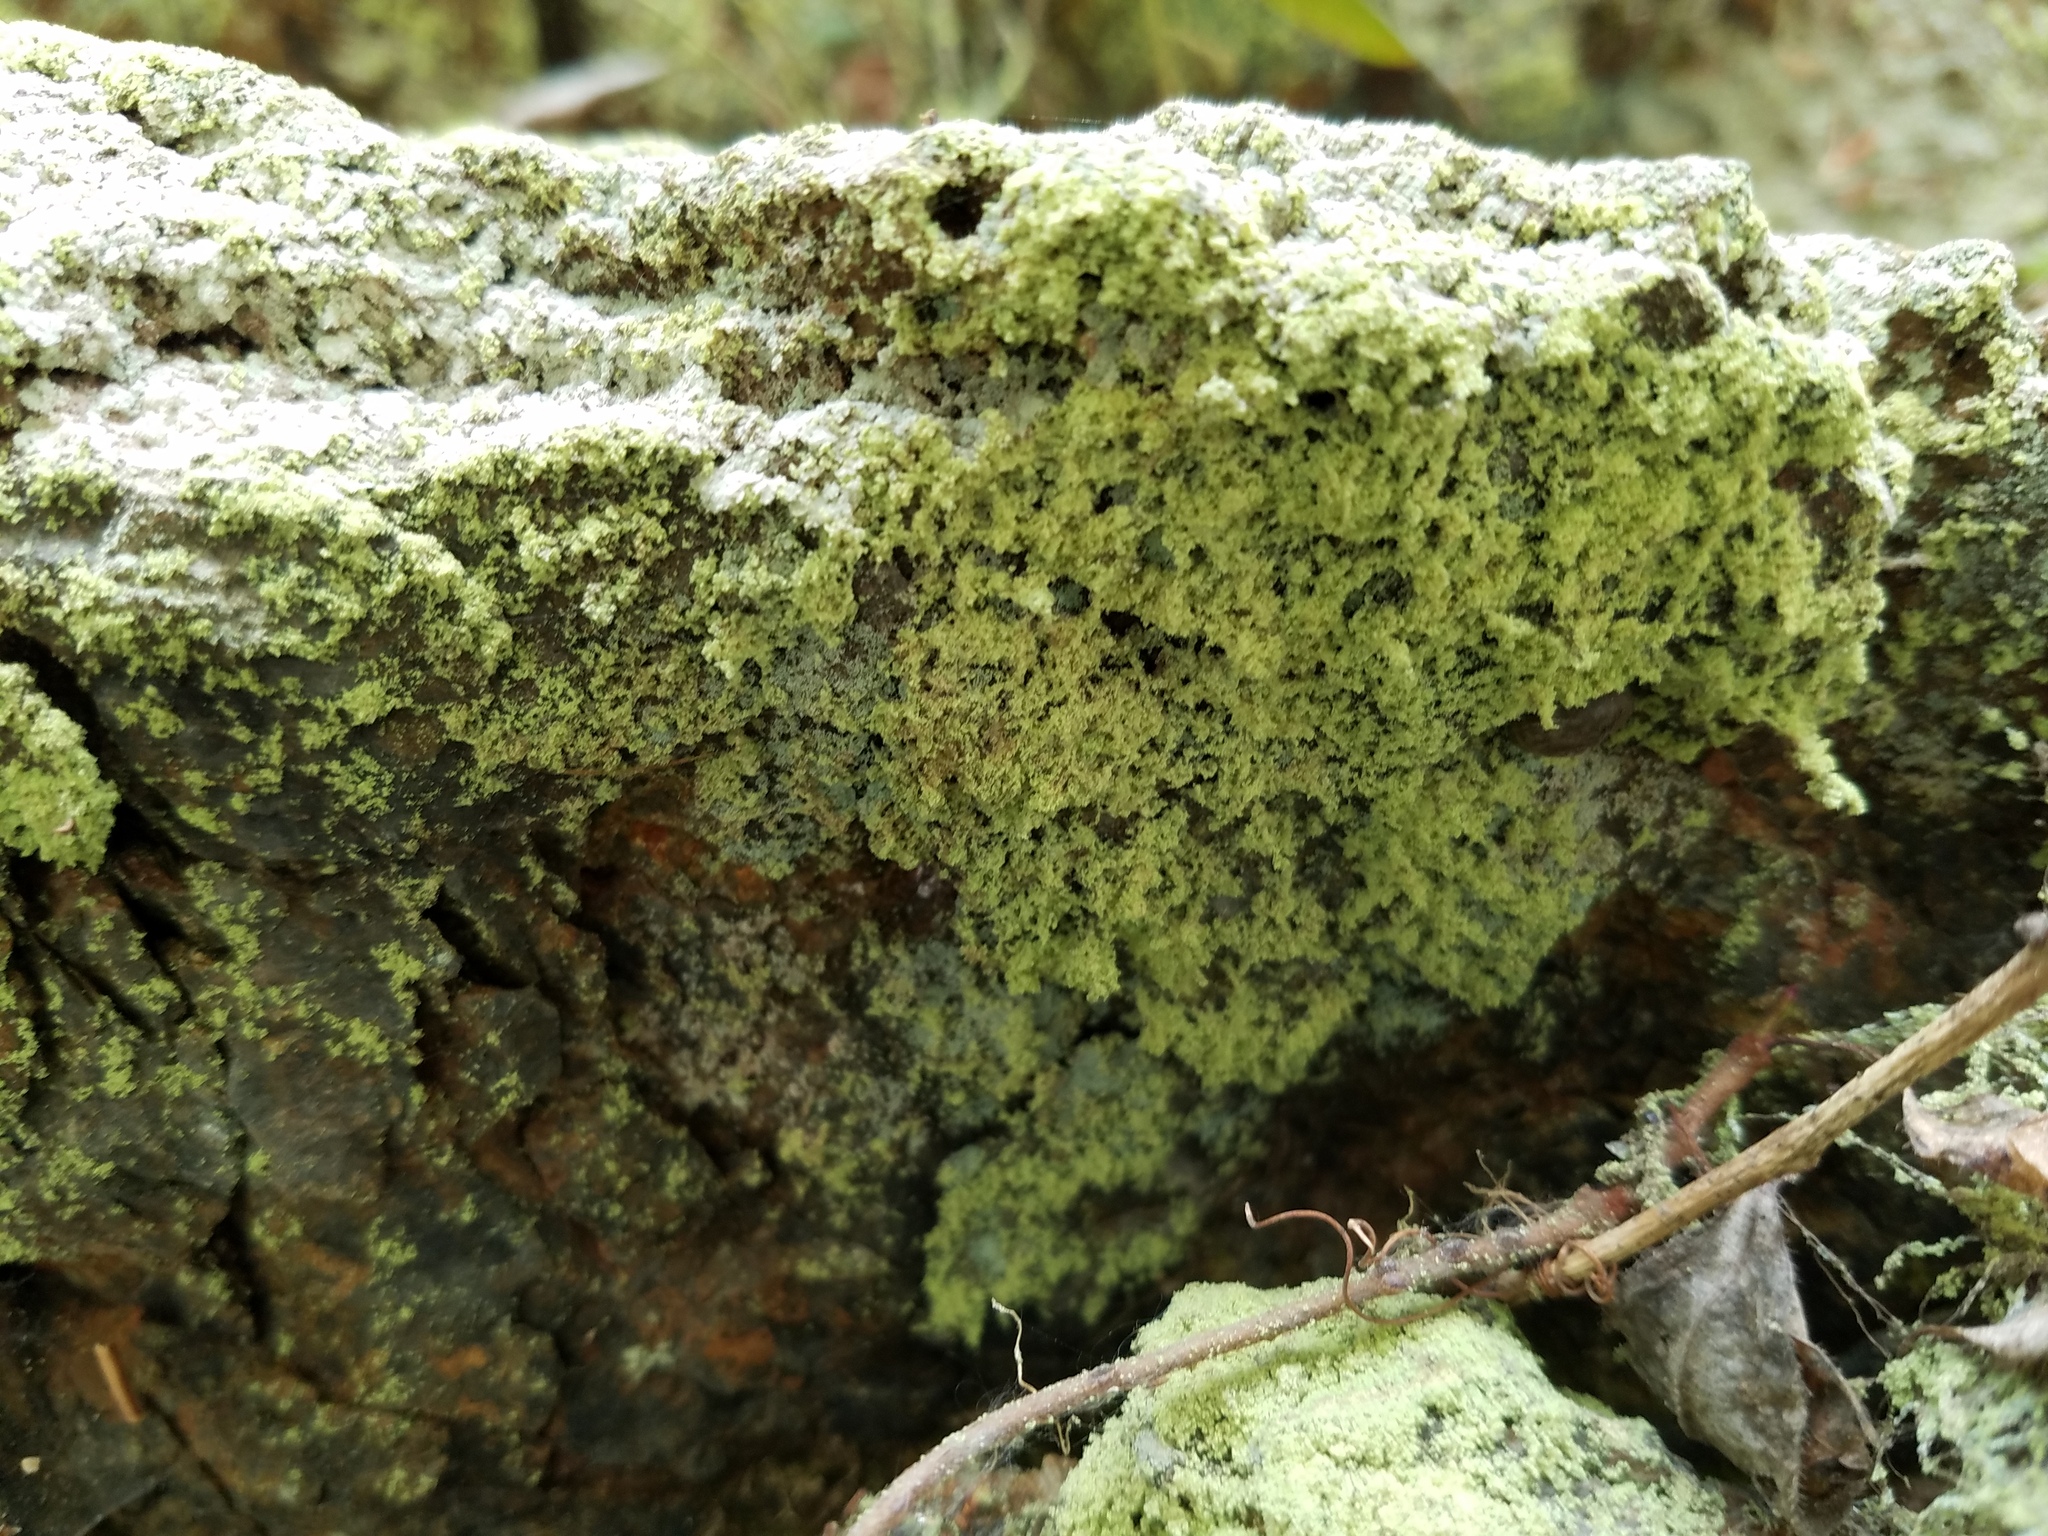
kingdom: Fungi
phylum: Ascomycota
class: Lecanoromycetes
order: Lecanorales
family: Psilolechiaceae
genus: Psilolechia
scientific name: Psilolechia lucida
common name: Sulphur dust lichen
